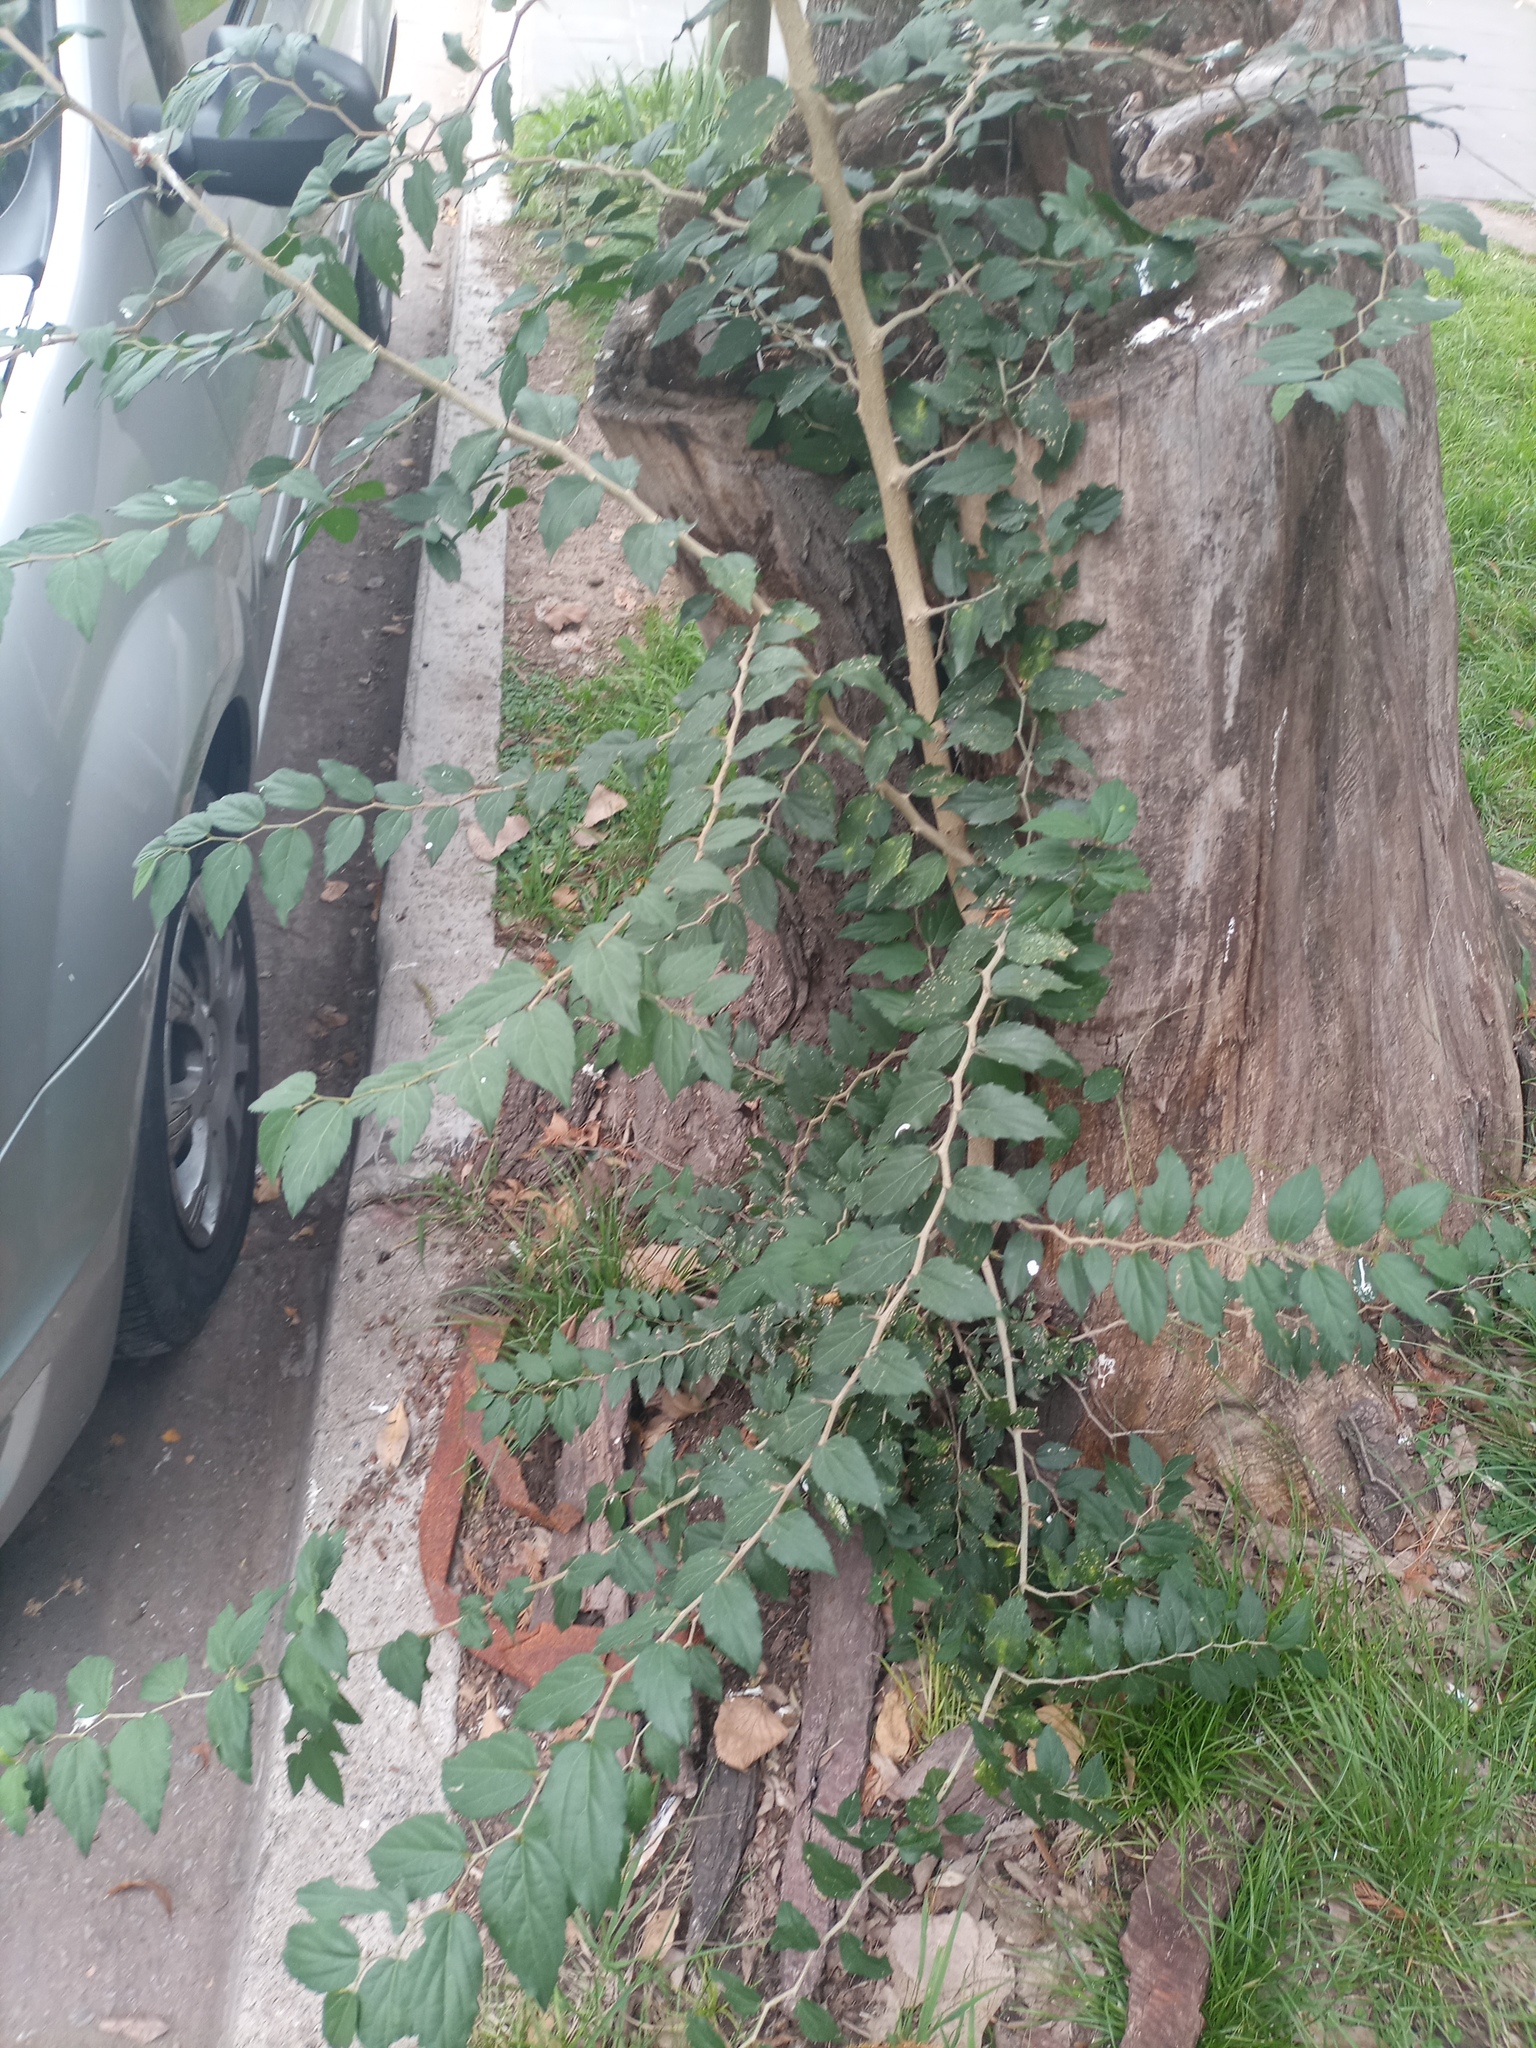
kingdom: Plantae
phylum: Tracheophyta
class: Magnoliopsida
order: Rosales
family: Cannabaceae
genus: Celtis
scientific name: Celtis tala
